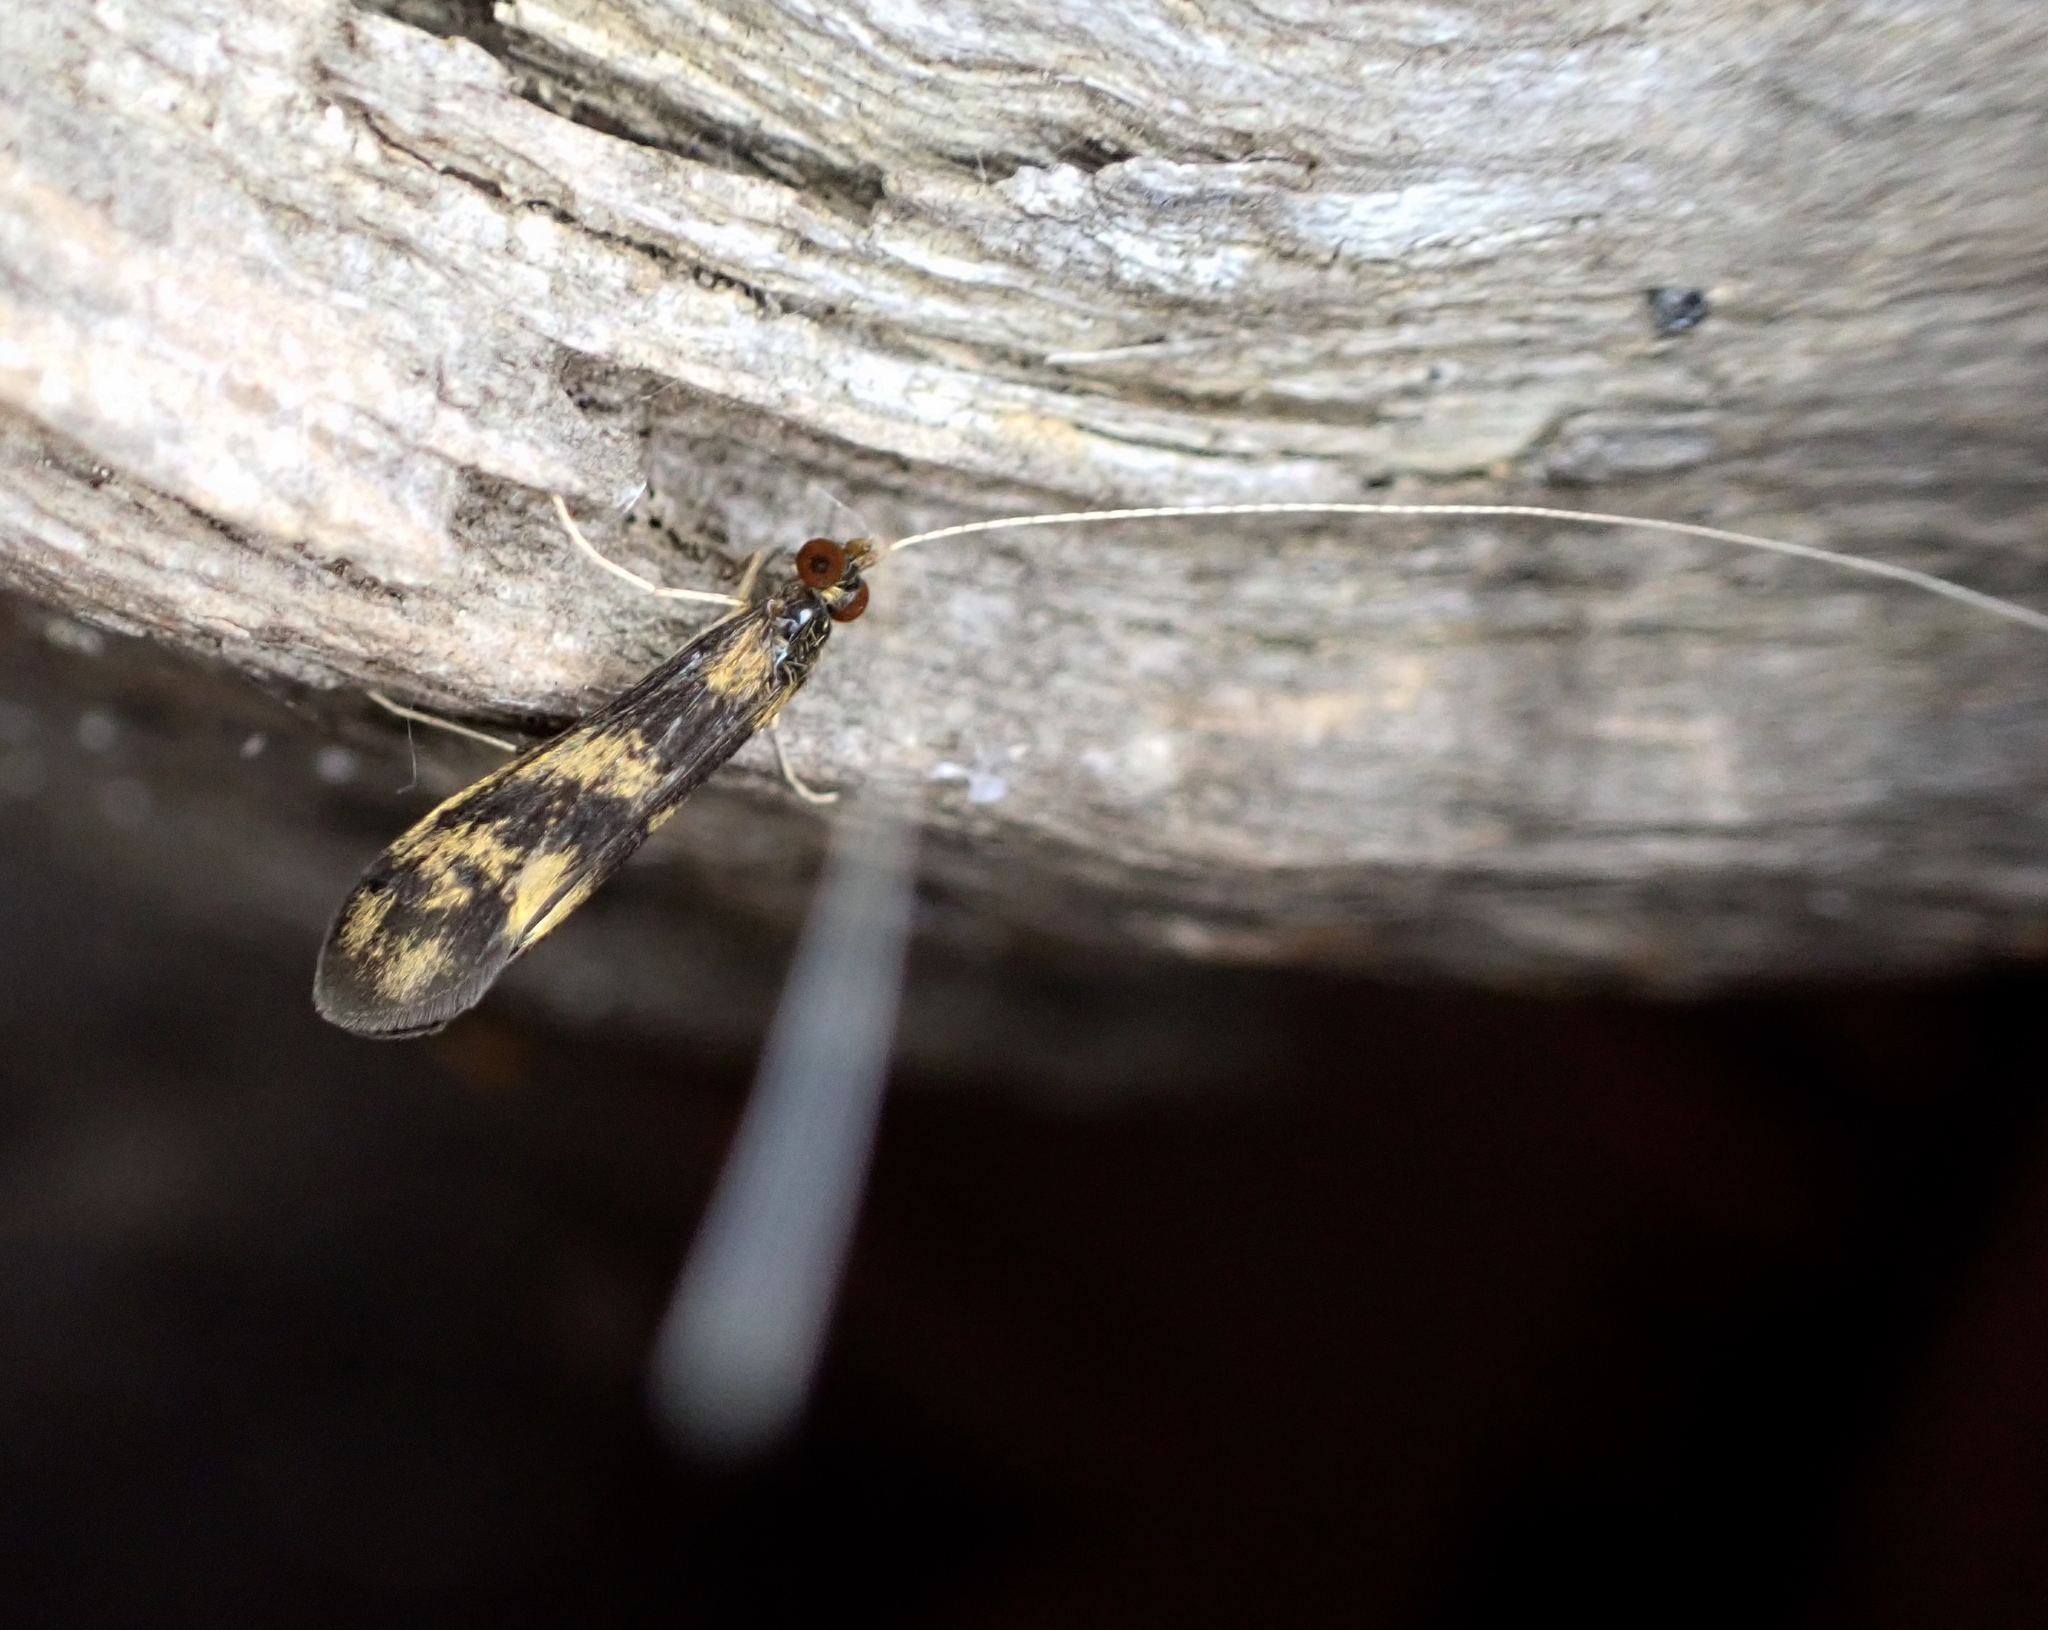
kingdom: Animalia
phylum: Arthropoda
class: Insecta
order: Trichoptera
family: Leptoceridae
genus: Mystacides
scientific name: Mystacides longicornis
